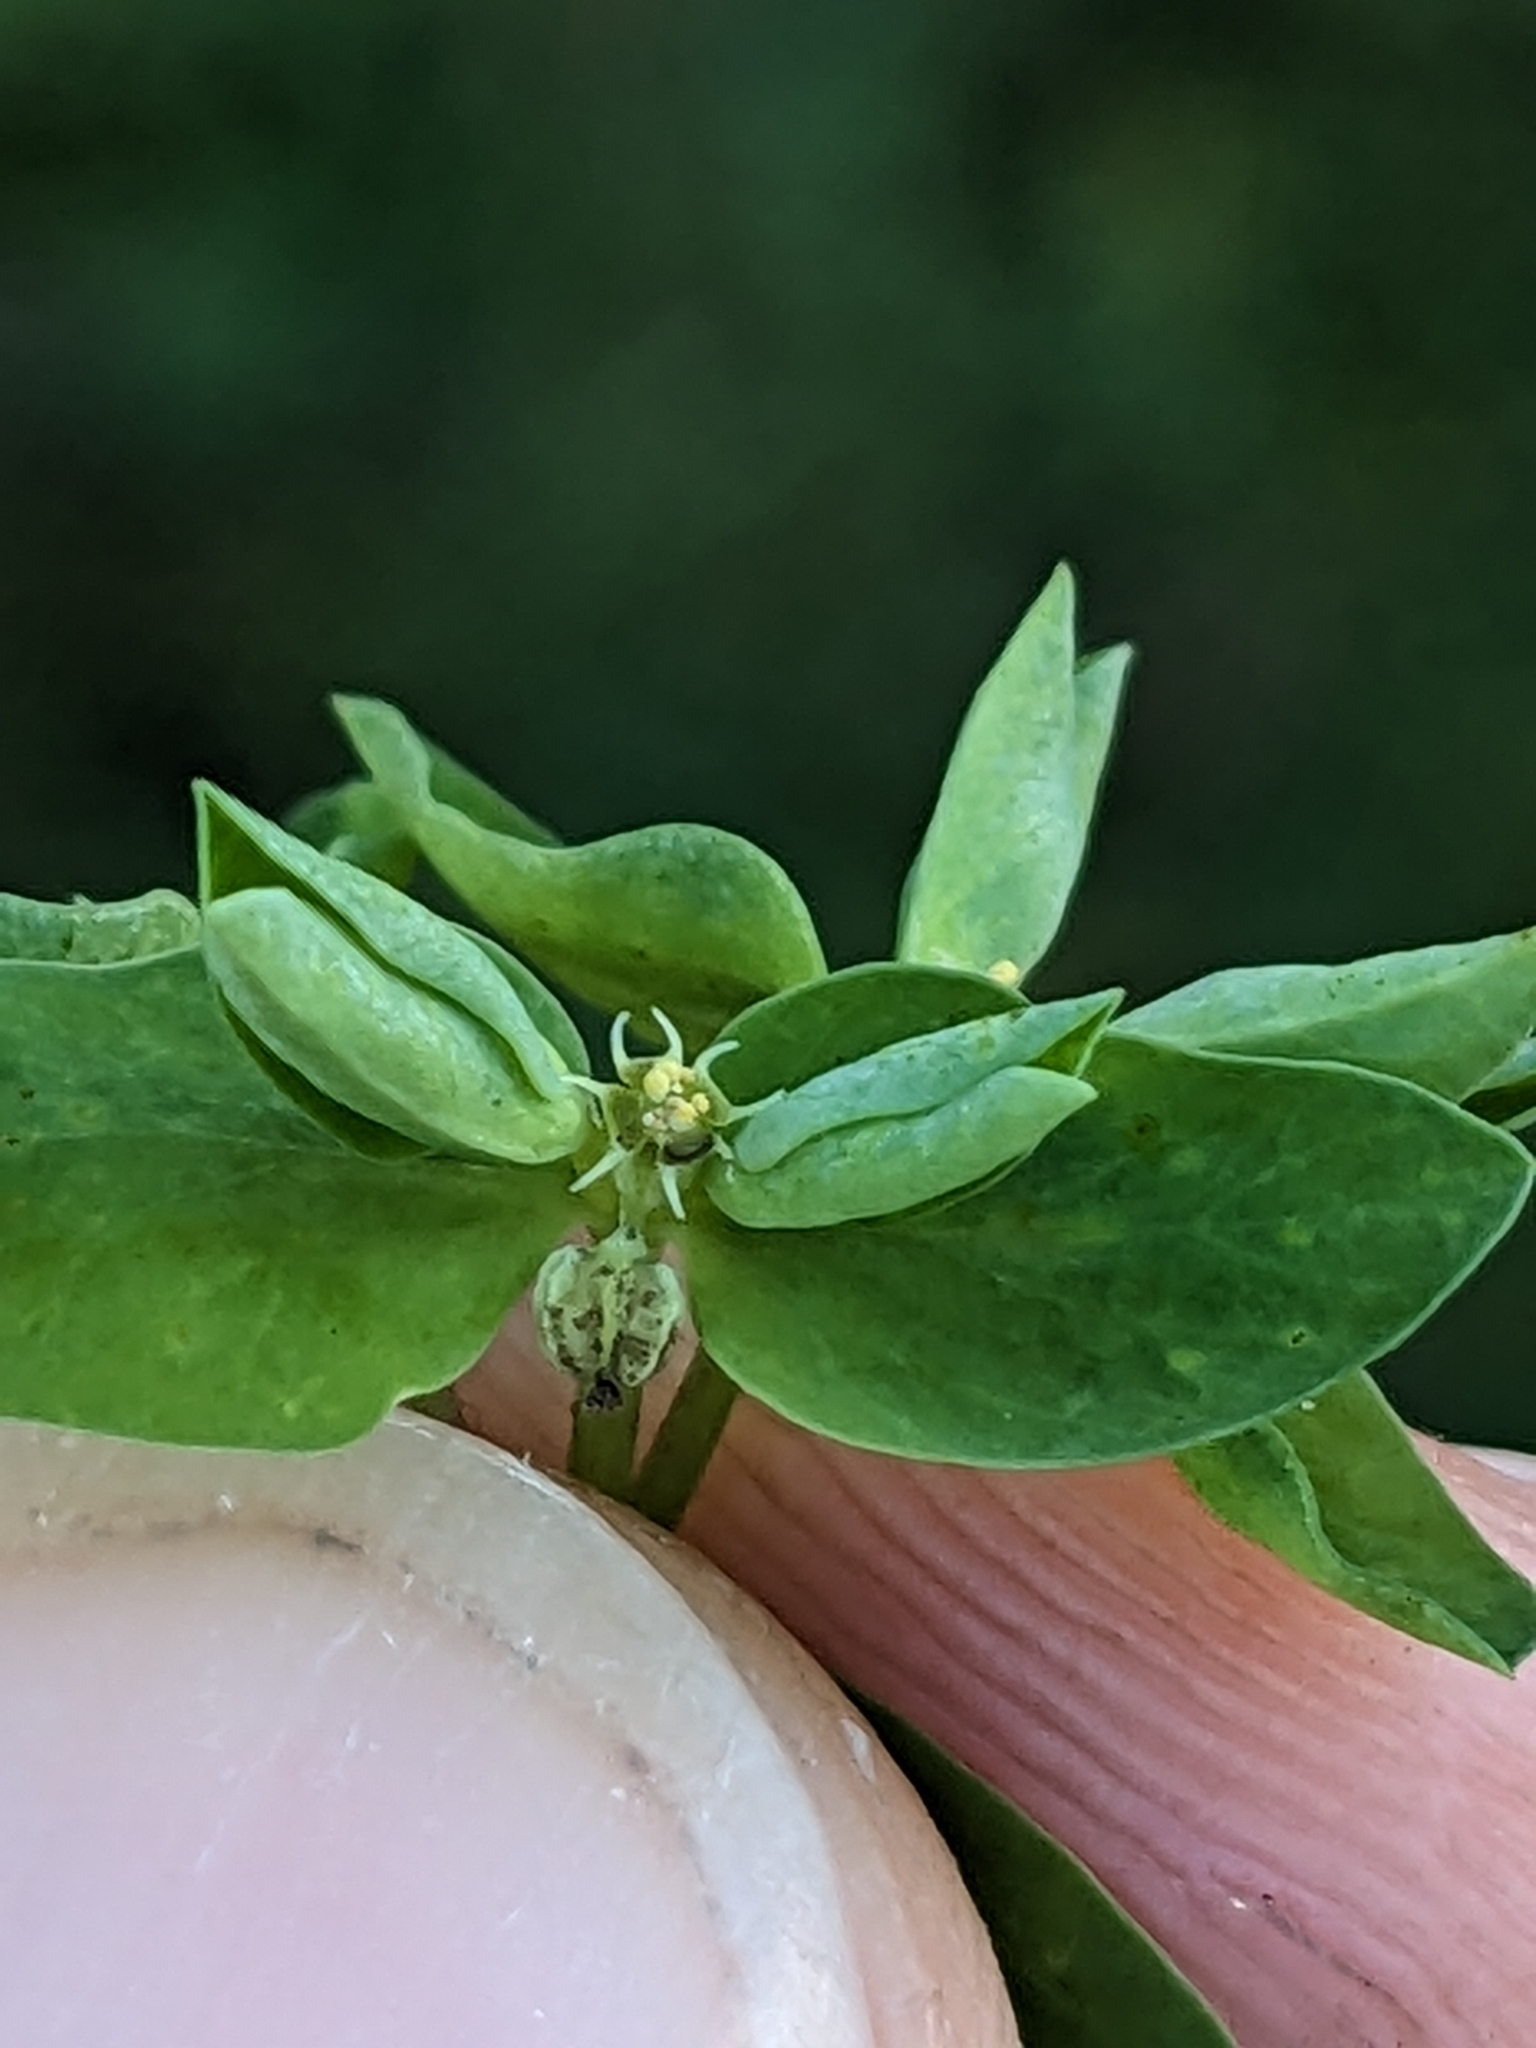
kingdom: Plantae
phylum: Tracheophyta
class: Magnoliopsida
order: Malpighiales
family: Euphorbiaceae
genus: Euphorbia
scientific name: Euphorbia peplus
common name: Petty spurge
